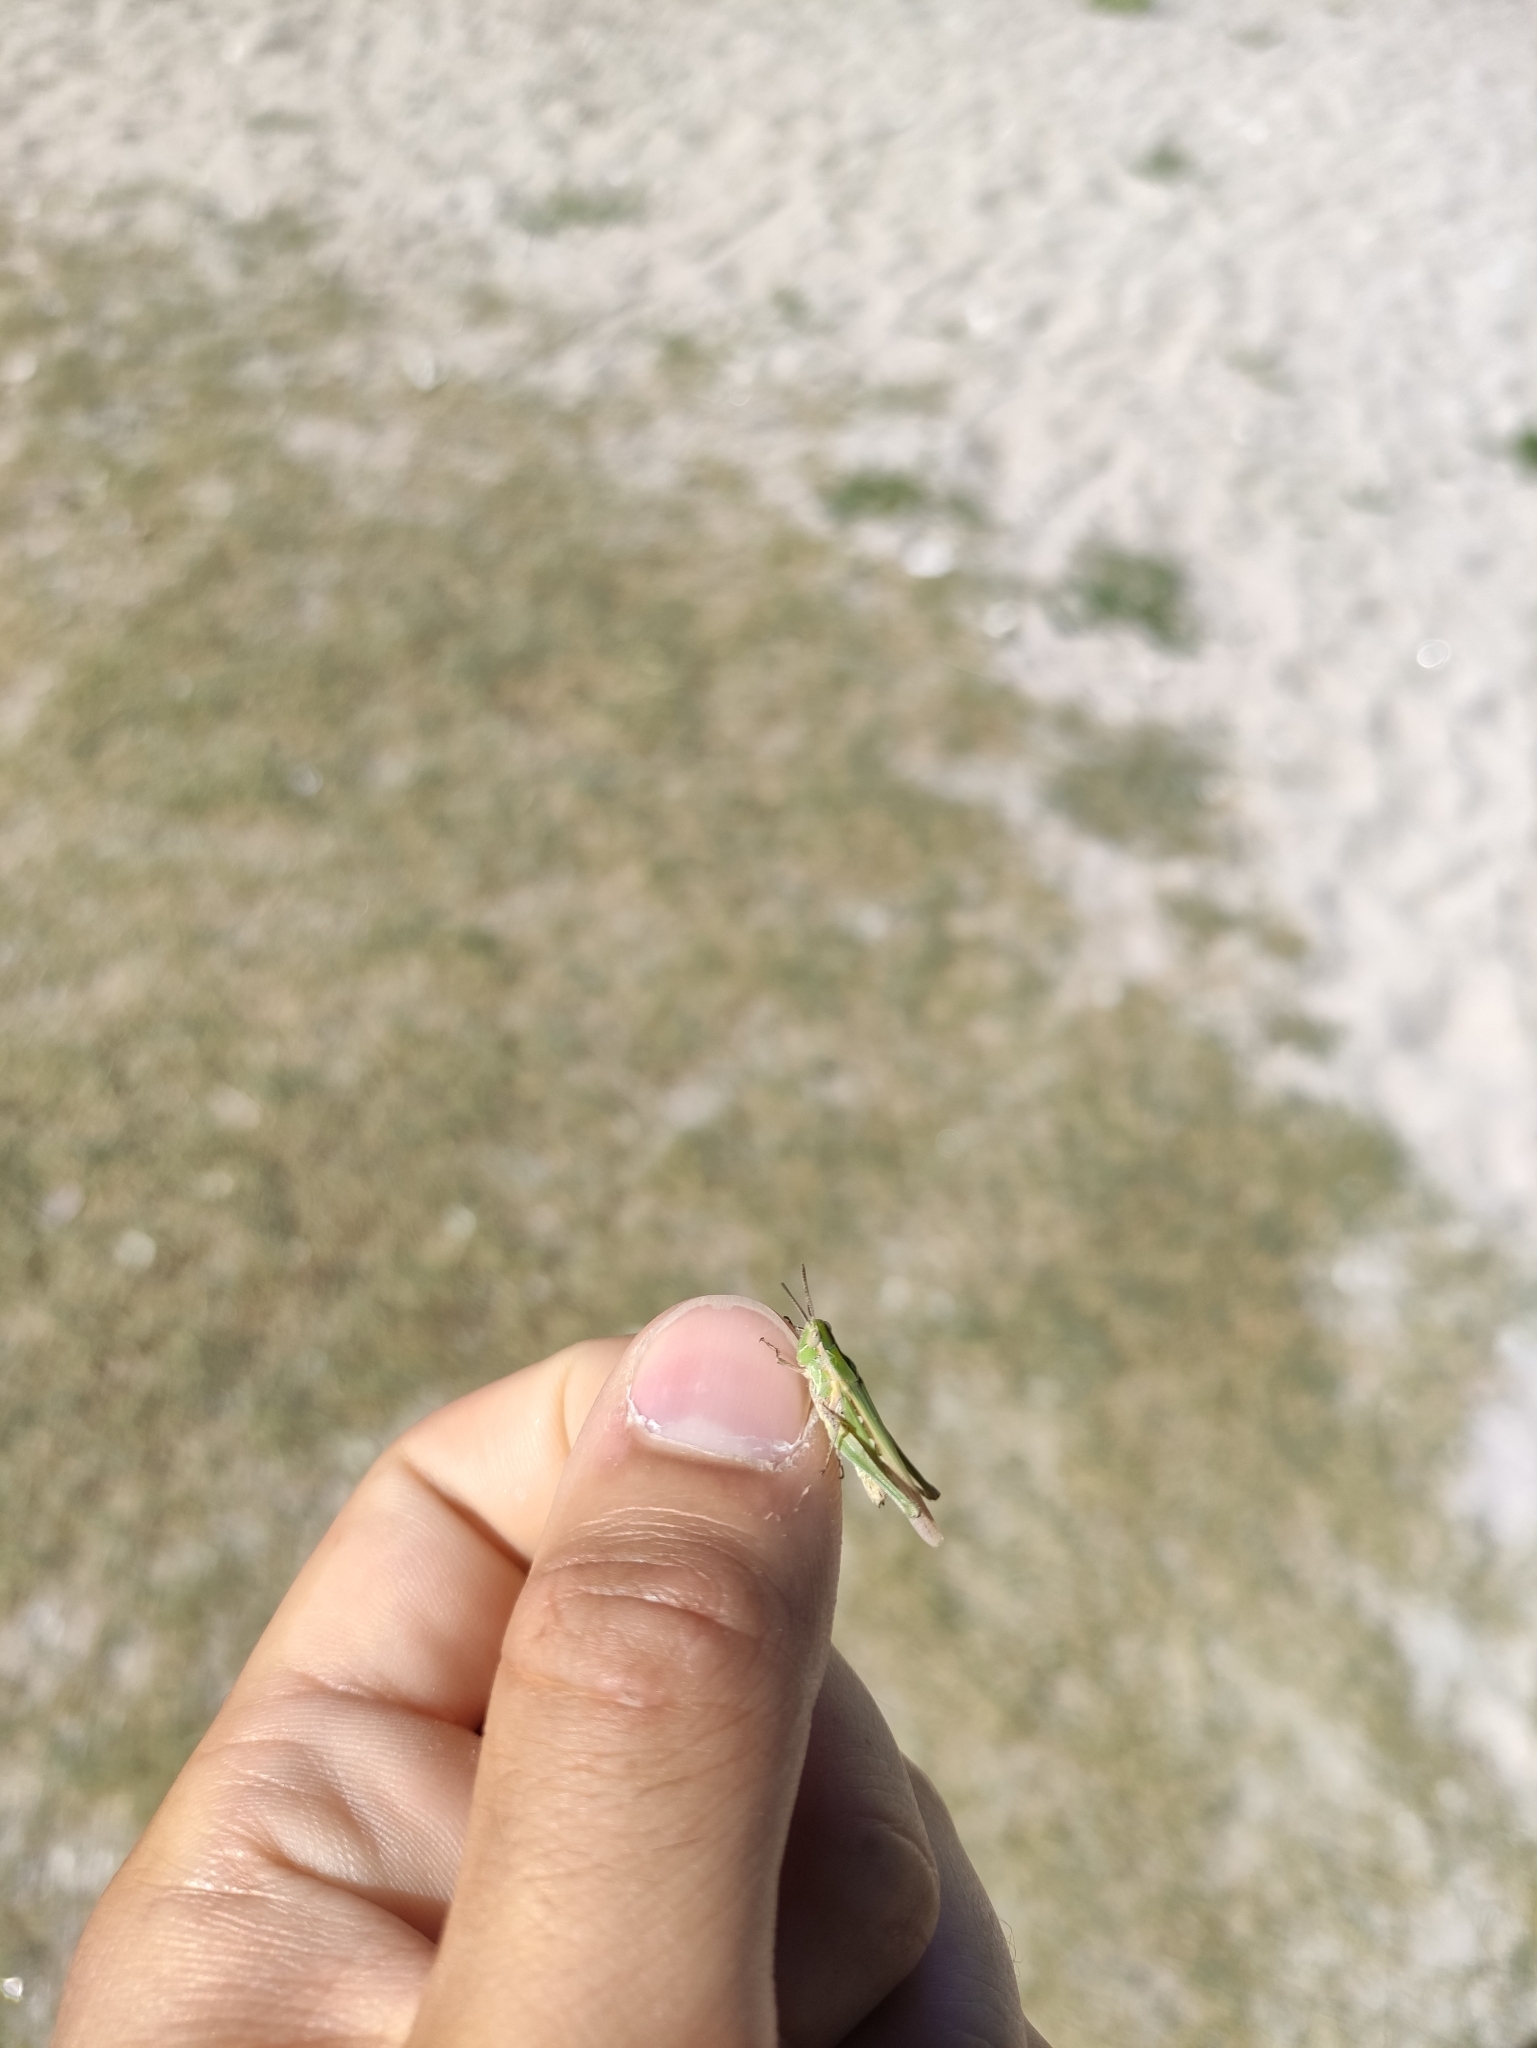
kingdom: Animalia
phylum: Arthropoda
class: Insecta
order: Orthoptera
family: Acrididae
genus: Calephorus
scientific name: Calephorus compressicornis
